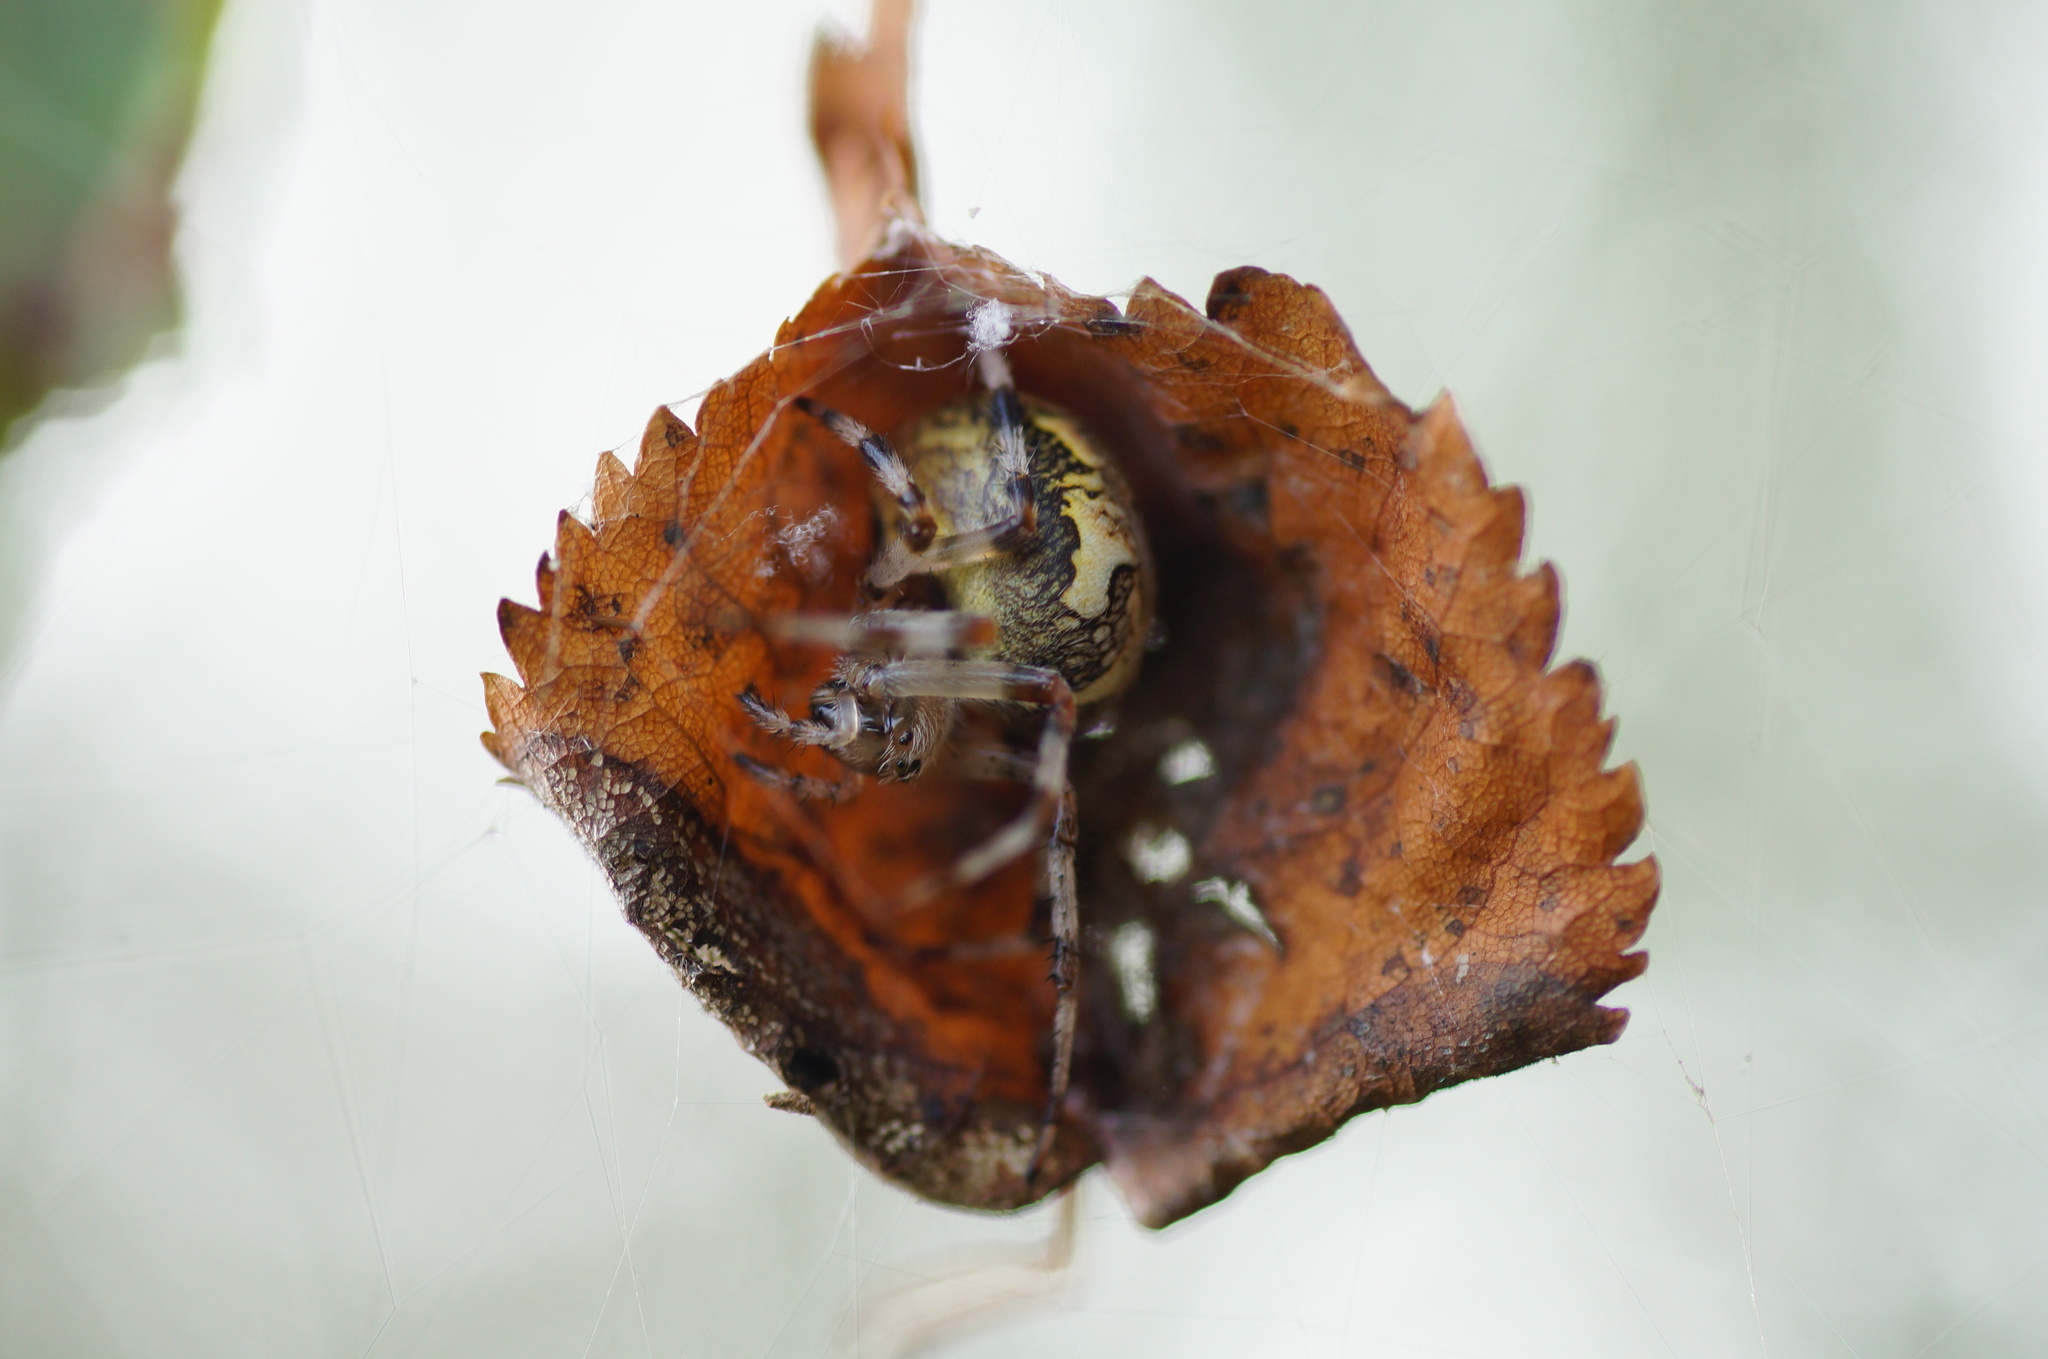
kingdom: Animalia
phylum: Arthropoda
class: Arachnida
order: Araneae
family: Araneidae
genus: Araneus
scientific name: Araneus marmoreus
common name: Marbled orbweaver
